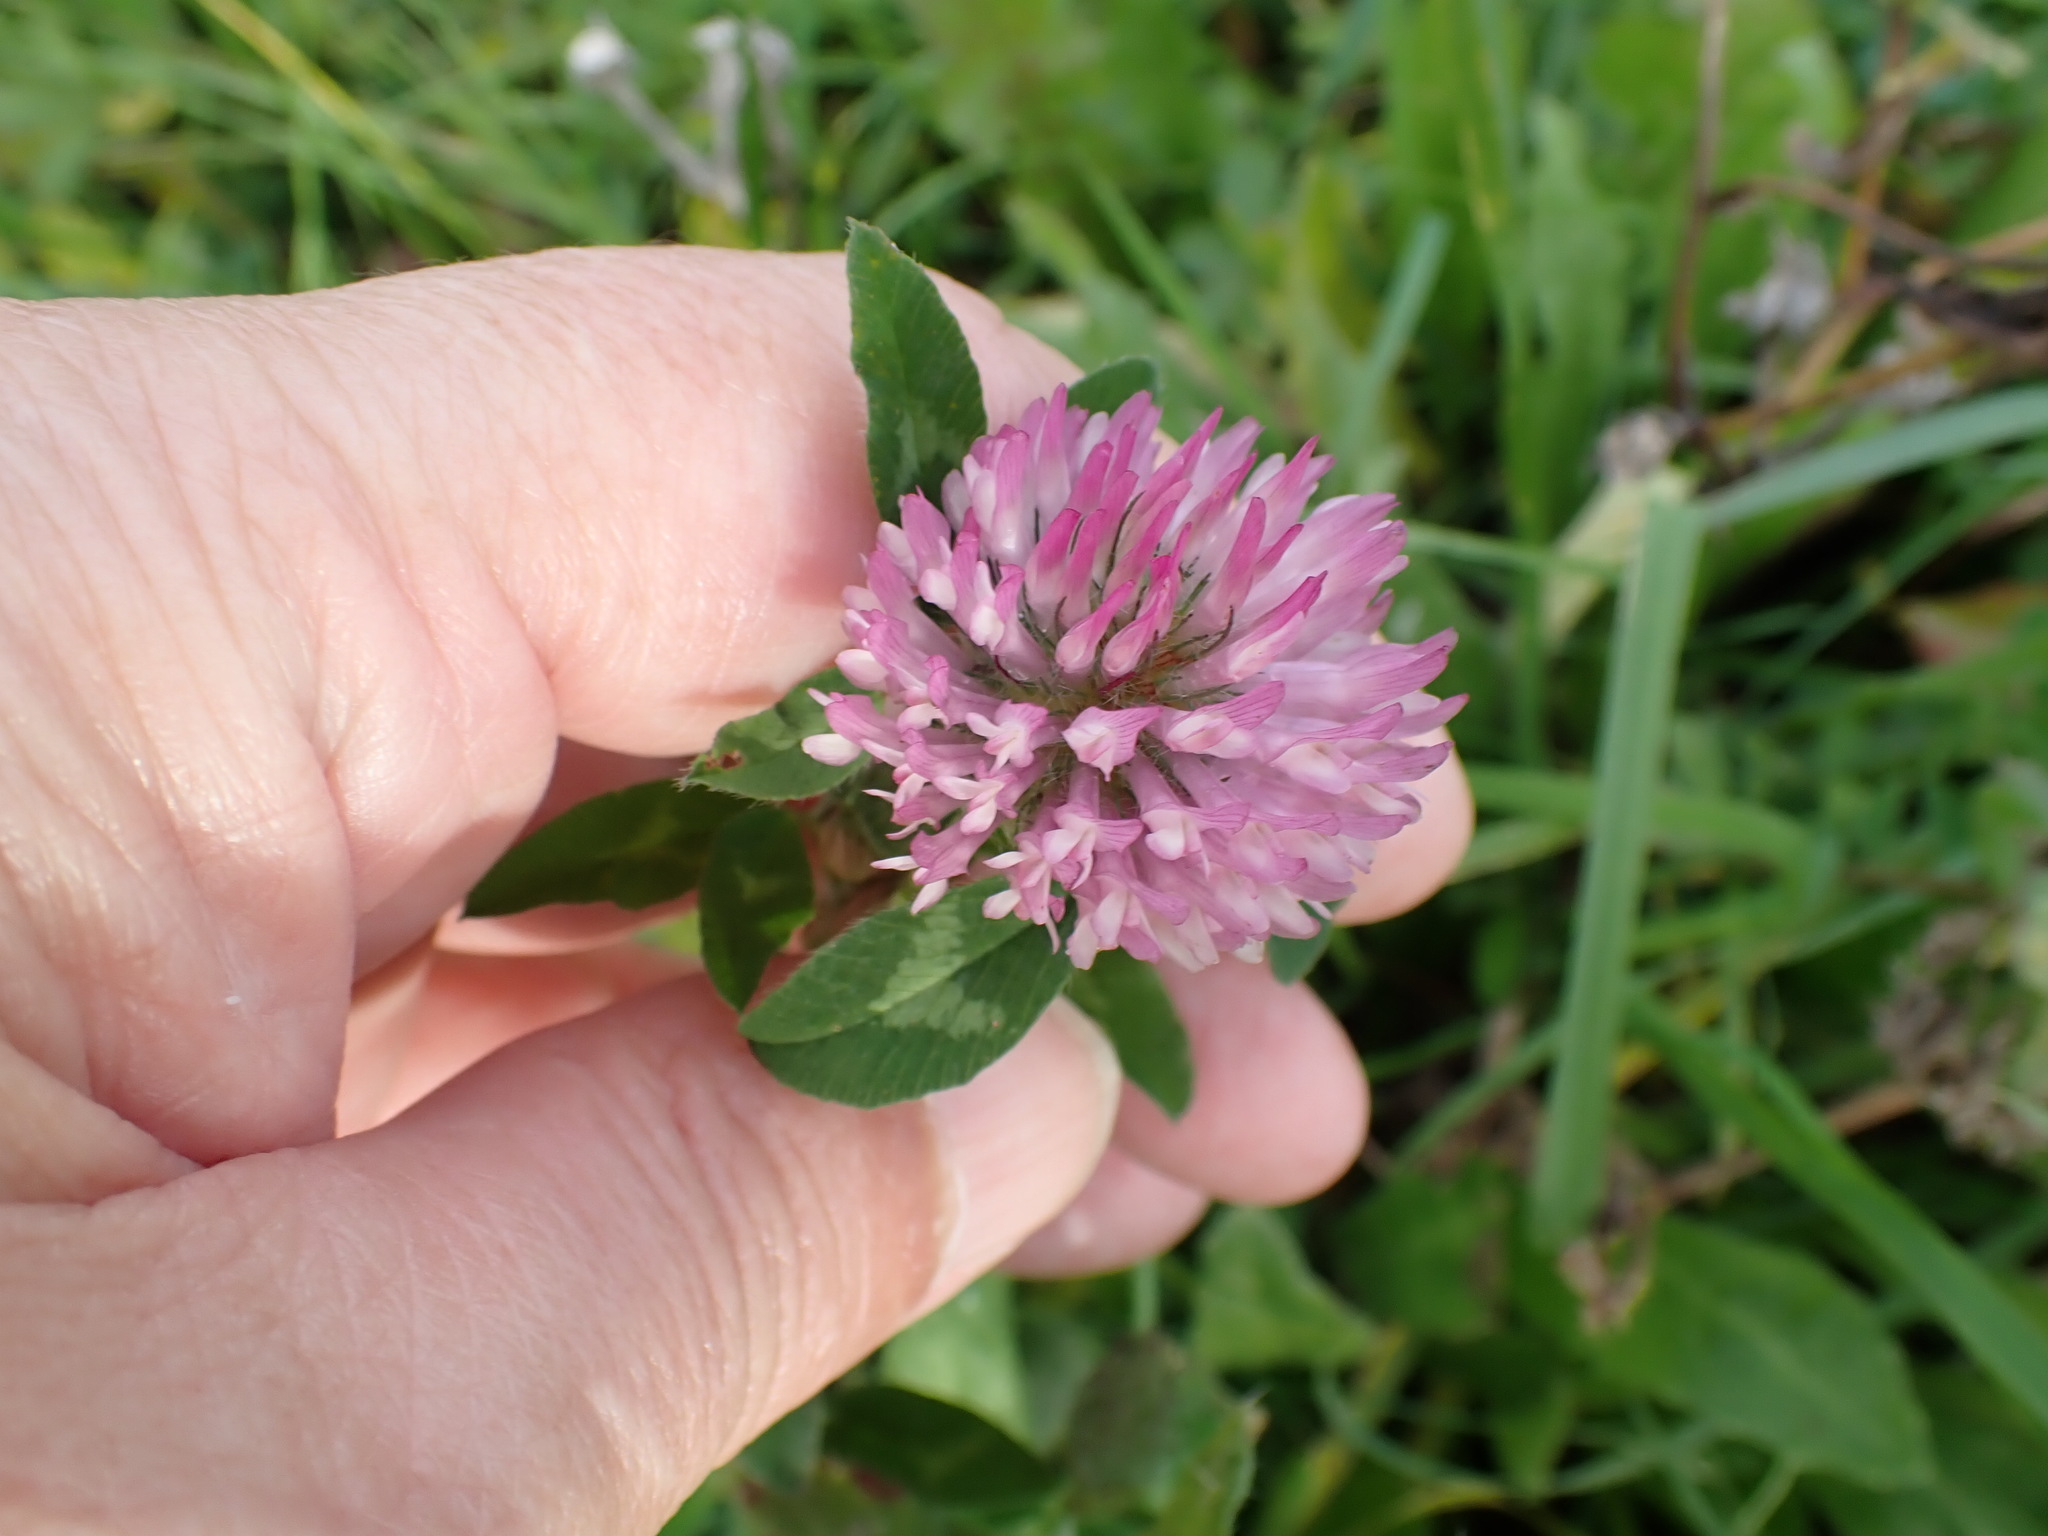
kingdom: Plantae
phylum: Tracheophyta
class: Magnoliopsida
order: Fabales
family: Fabaceae
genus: Trifolium
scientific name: Trifolium pratense
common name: Red clover
